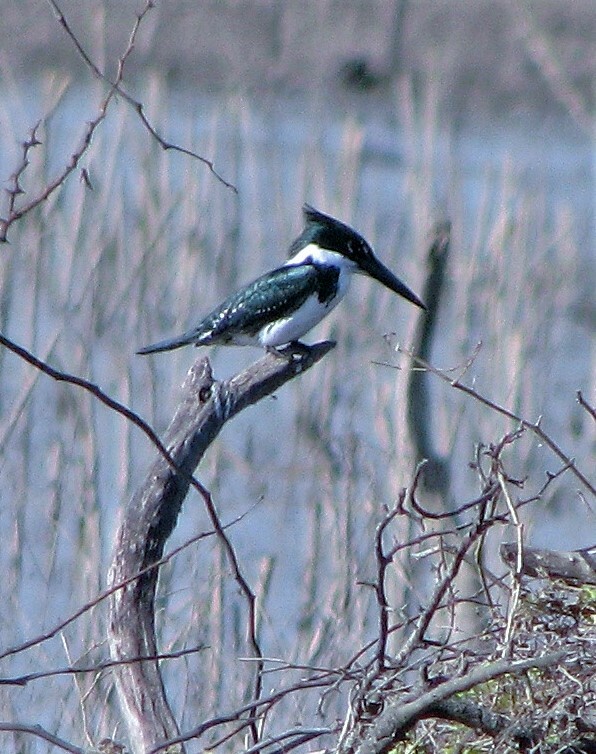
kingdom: Animalia
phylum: Chordata
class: Aves
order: Coraciiformes
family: Alcedinidae
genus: Chloroceryle
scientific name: Chloroceryle americana
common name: Green kingfisher
